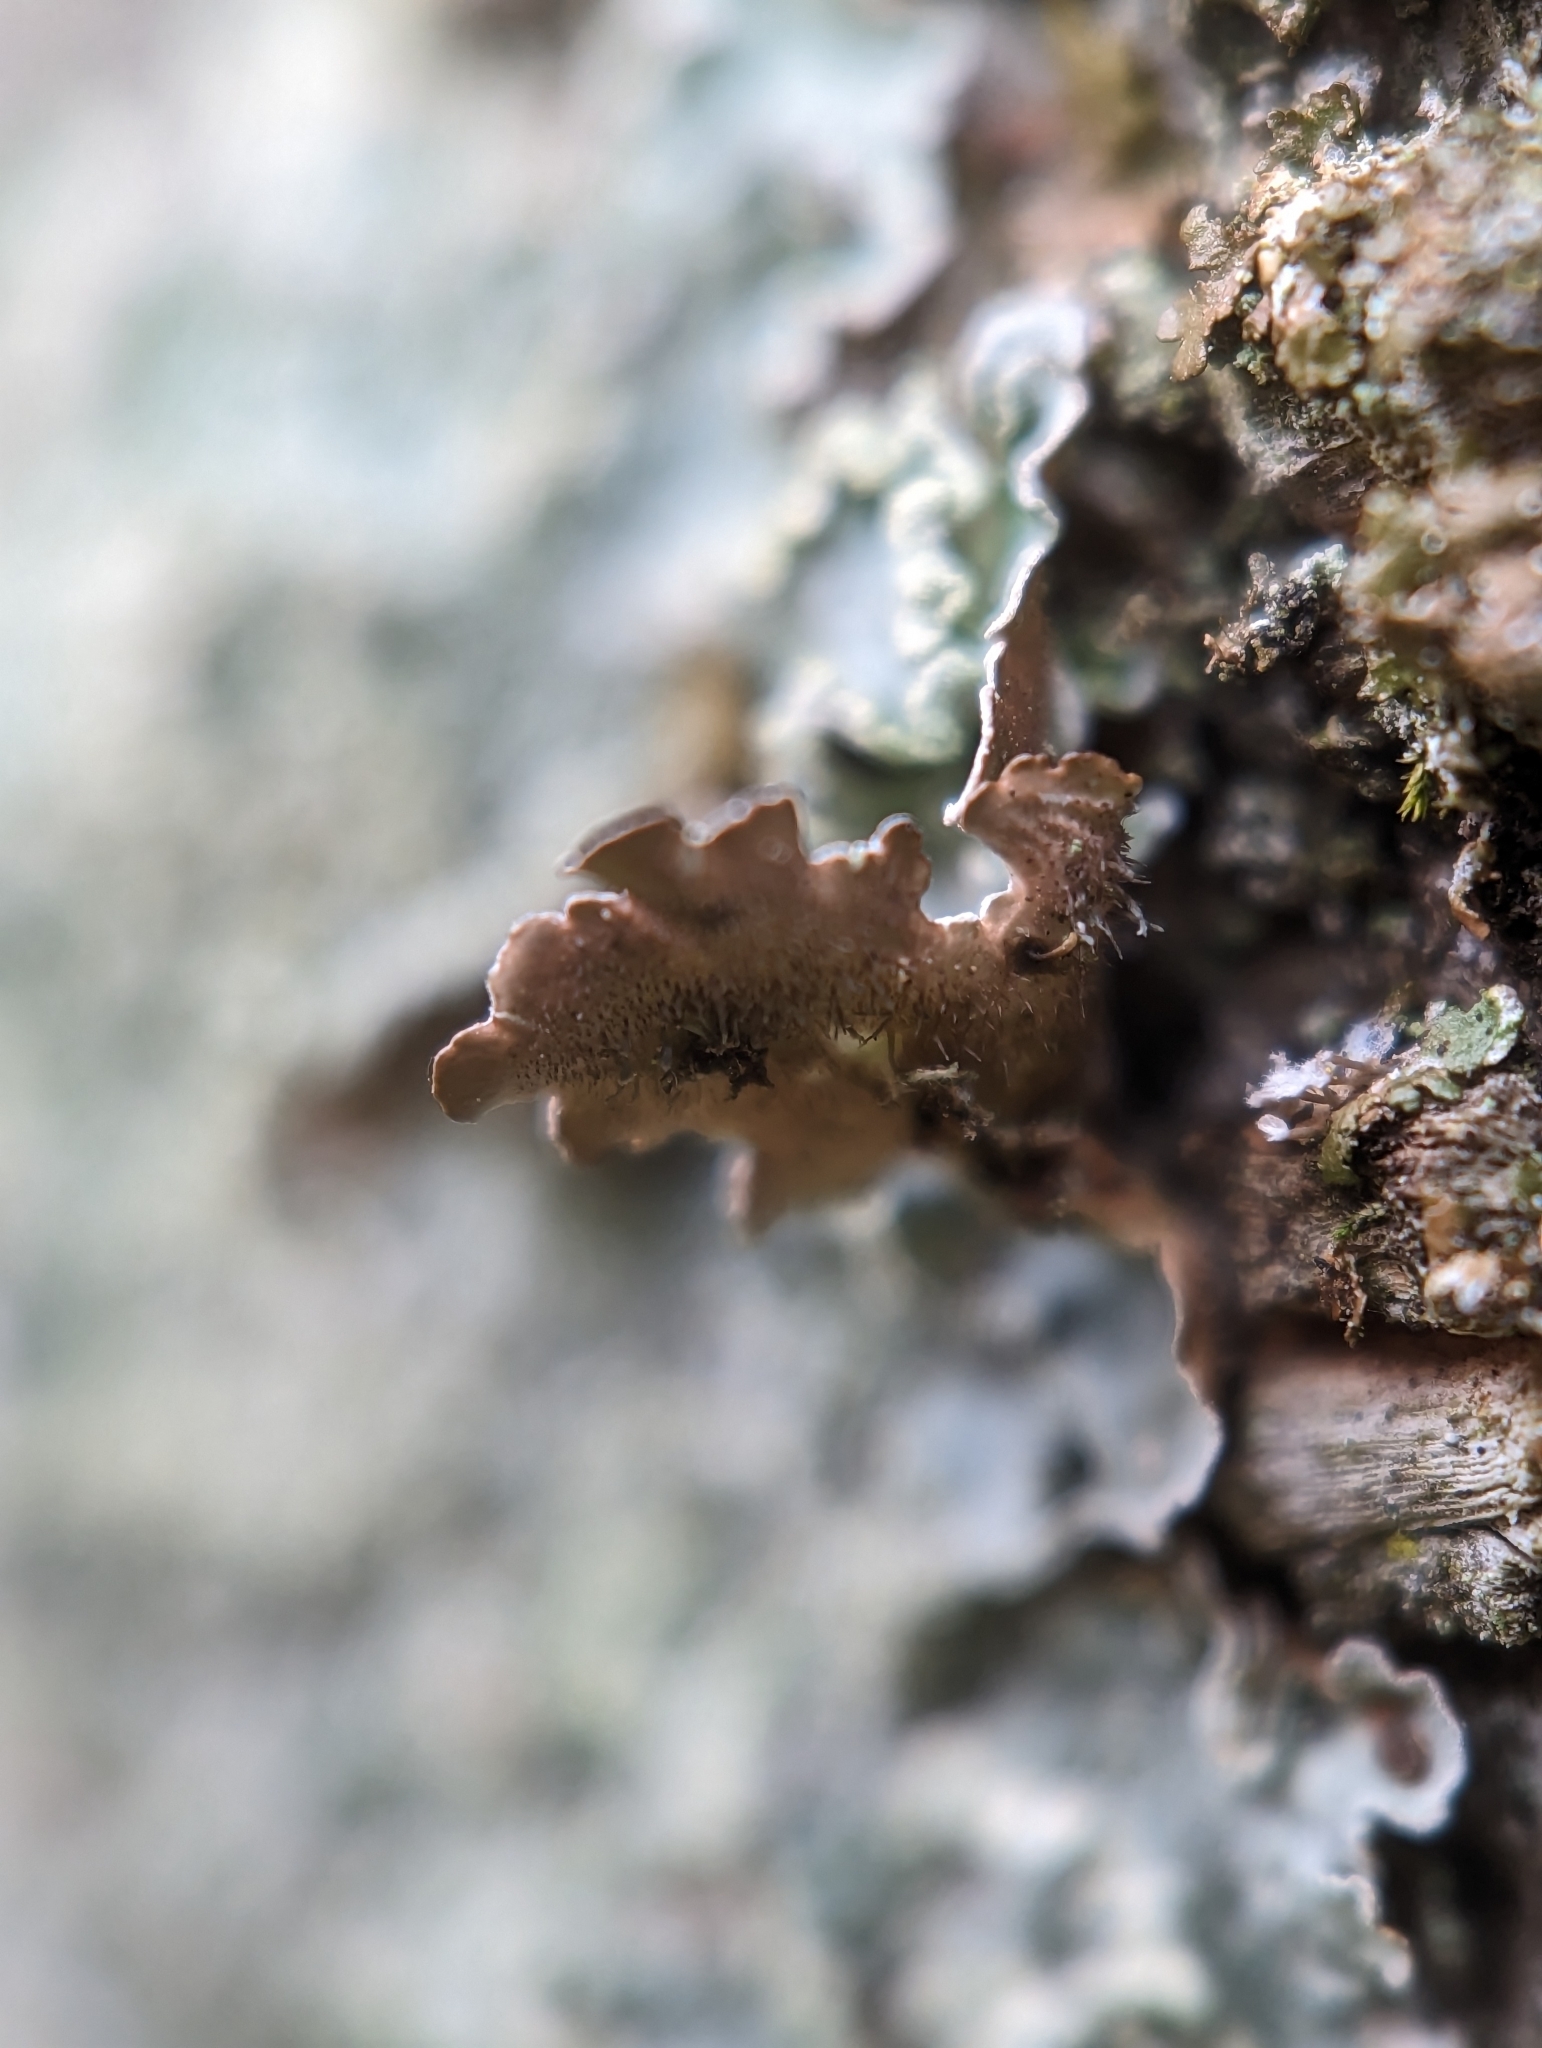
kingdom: Fungi
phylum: Ascomycota
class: Lecanoromycetes
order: Lecanorales
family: Parmeliaceae
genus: Punctelia
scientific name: Punctelia jeckeri
